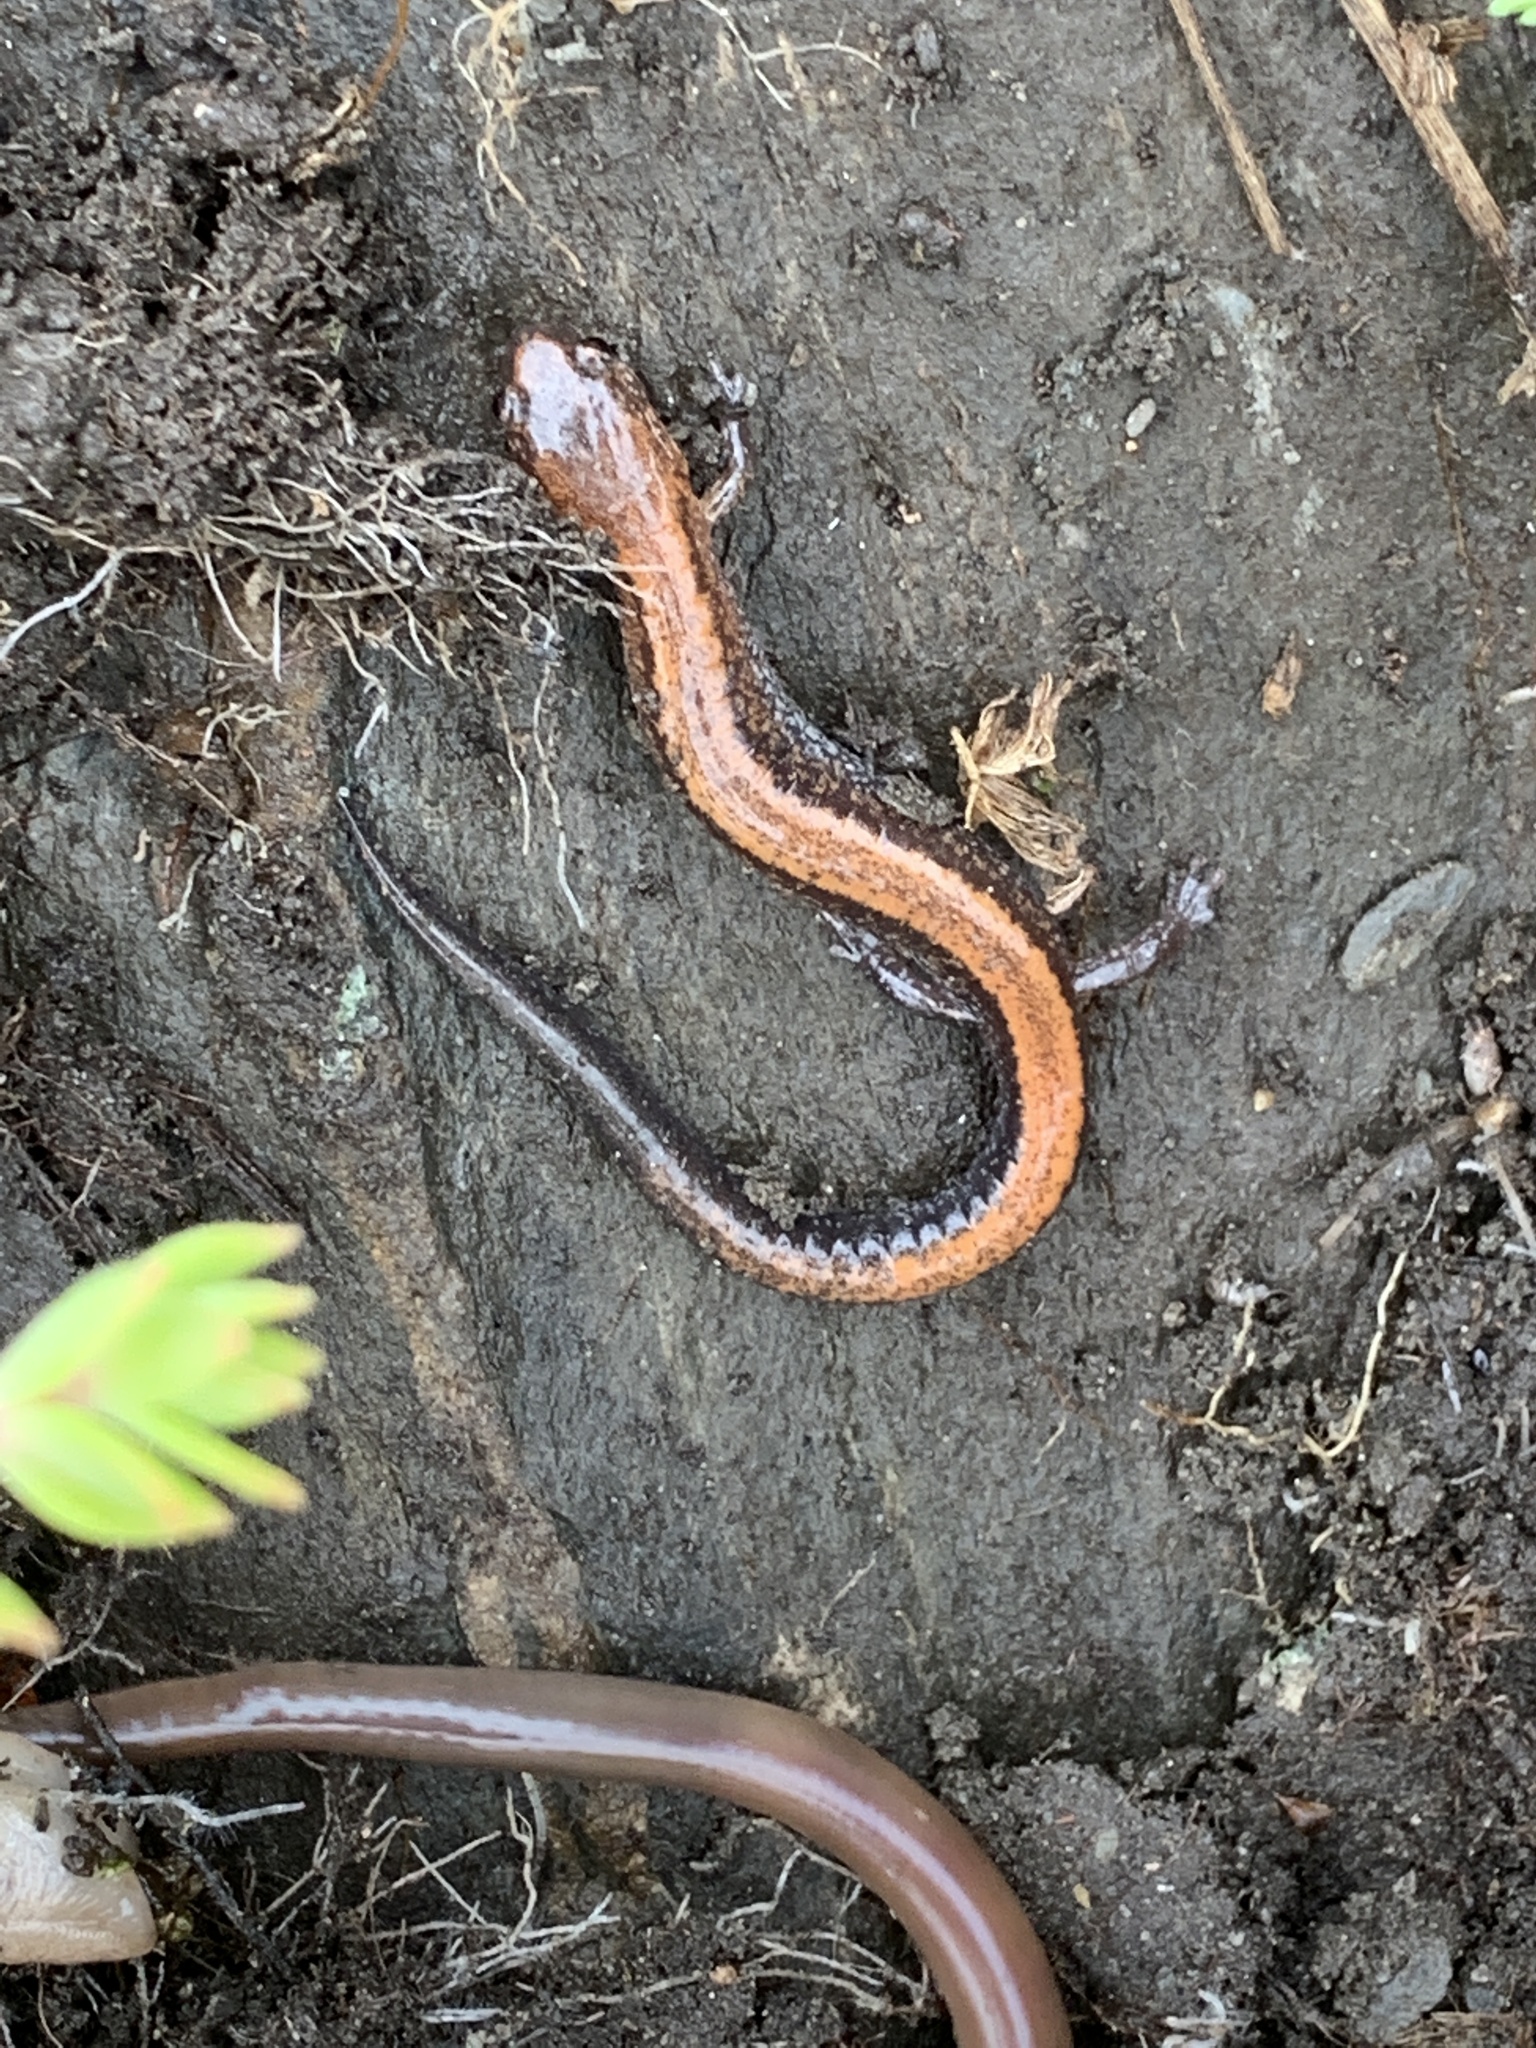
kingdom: Animalia
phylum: Chordata
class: Amphibia
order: Caudata
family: Plethodontidae
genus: Plethodon
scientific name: Plethodon cinereus
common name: Redback salamander
